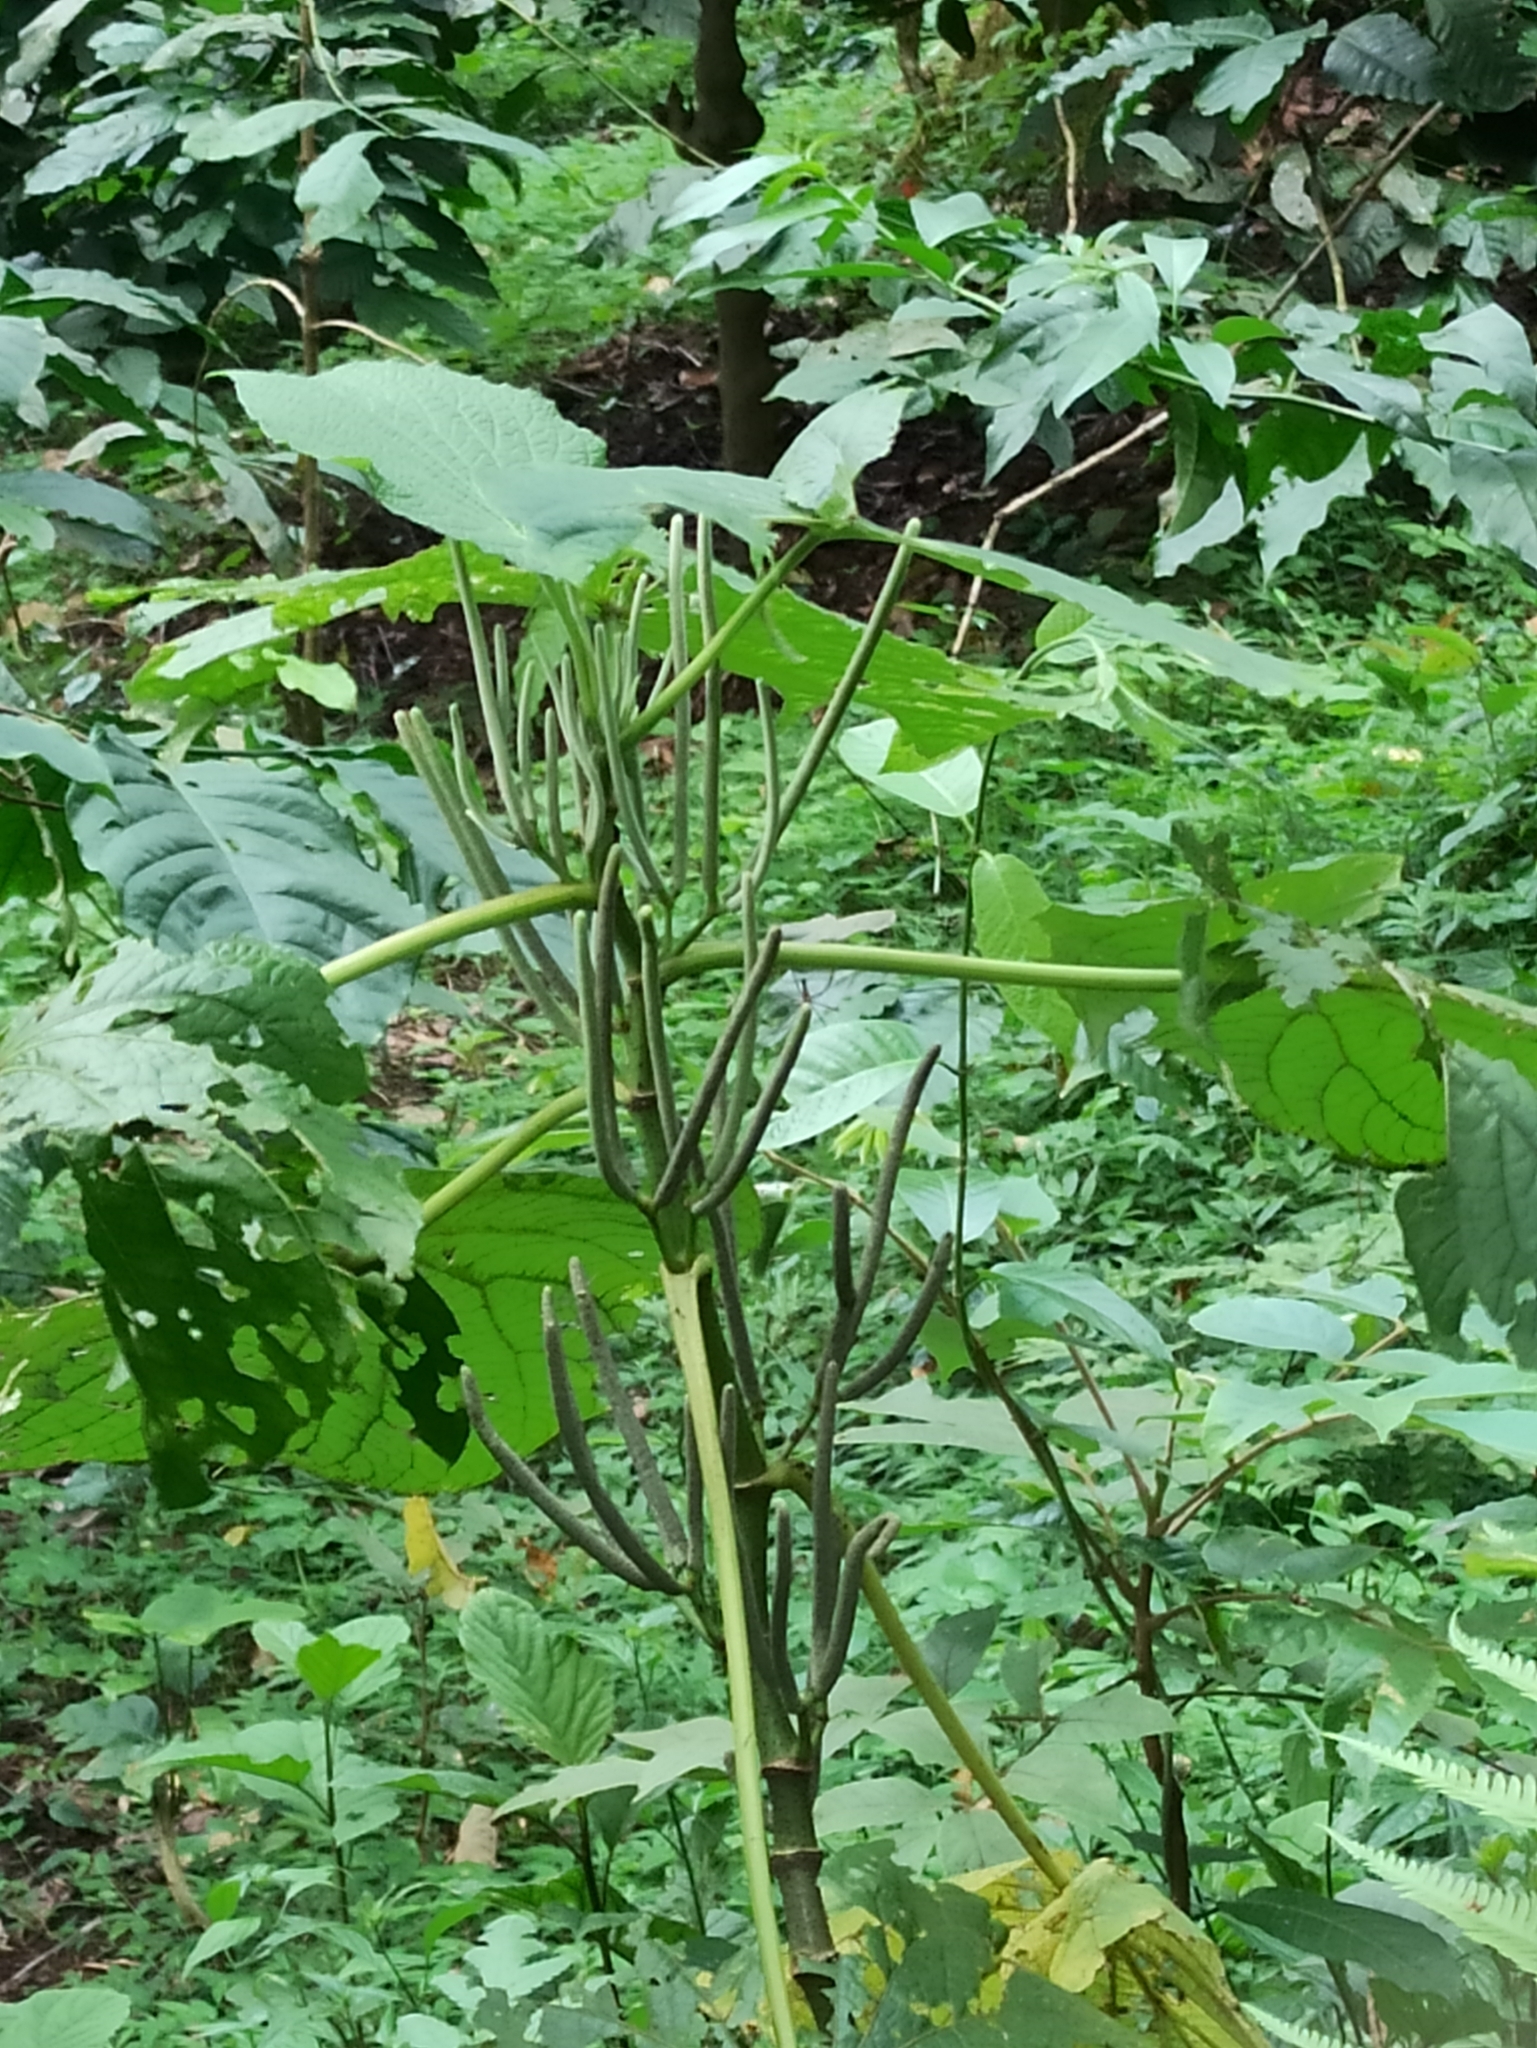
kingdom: Plantae
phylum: Tracheophyta
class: Magnoliopsida
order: Piperales
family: Piperaceae
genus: Piper
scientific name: Piper umbellatum
